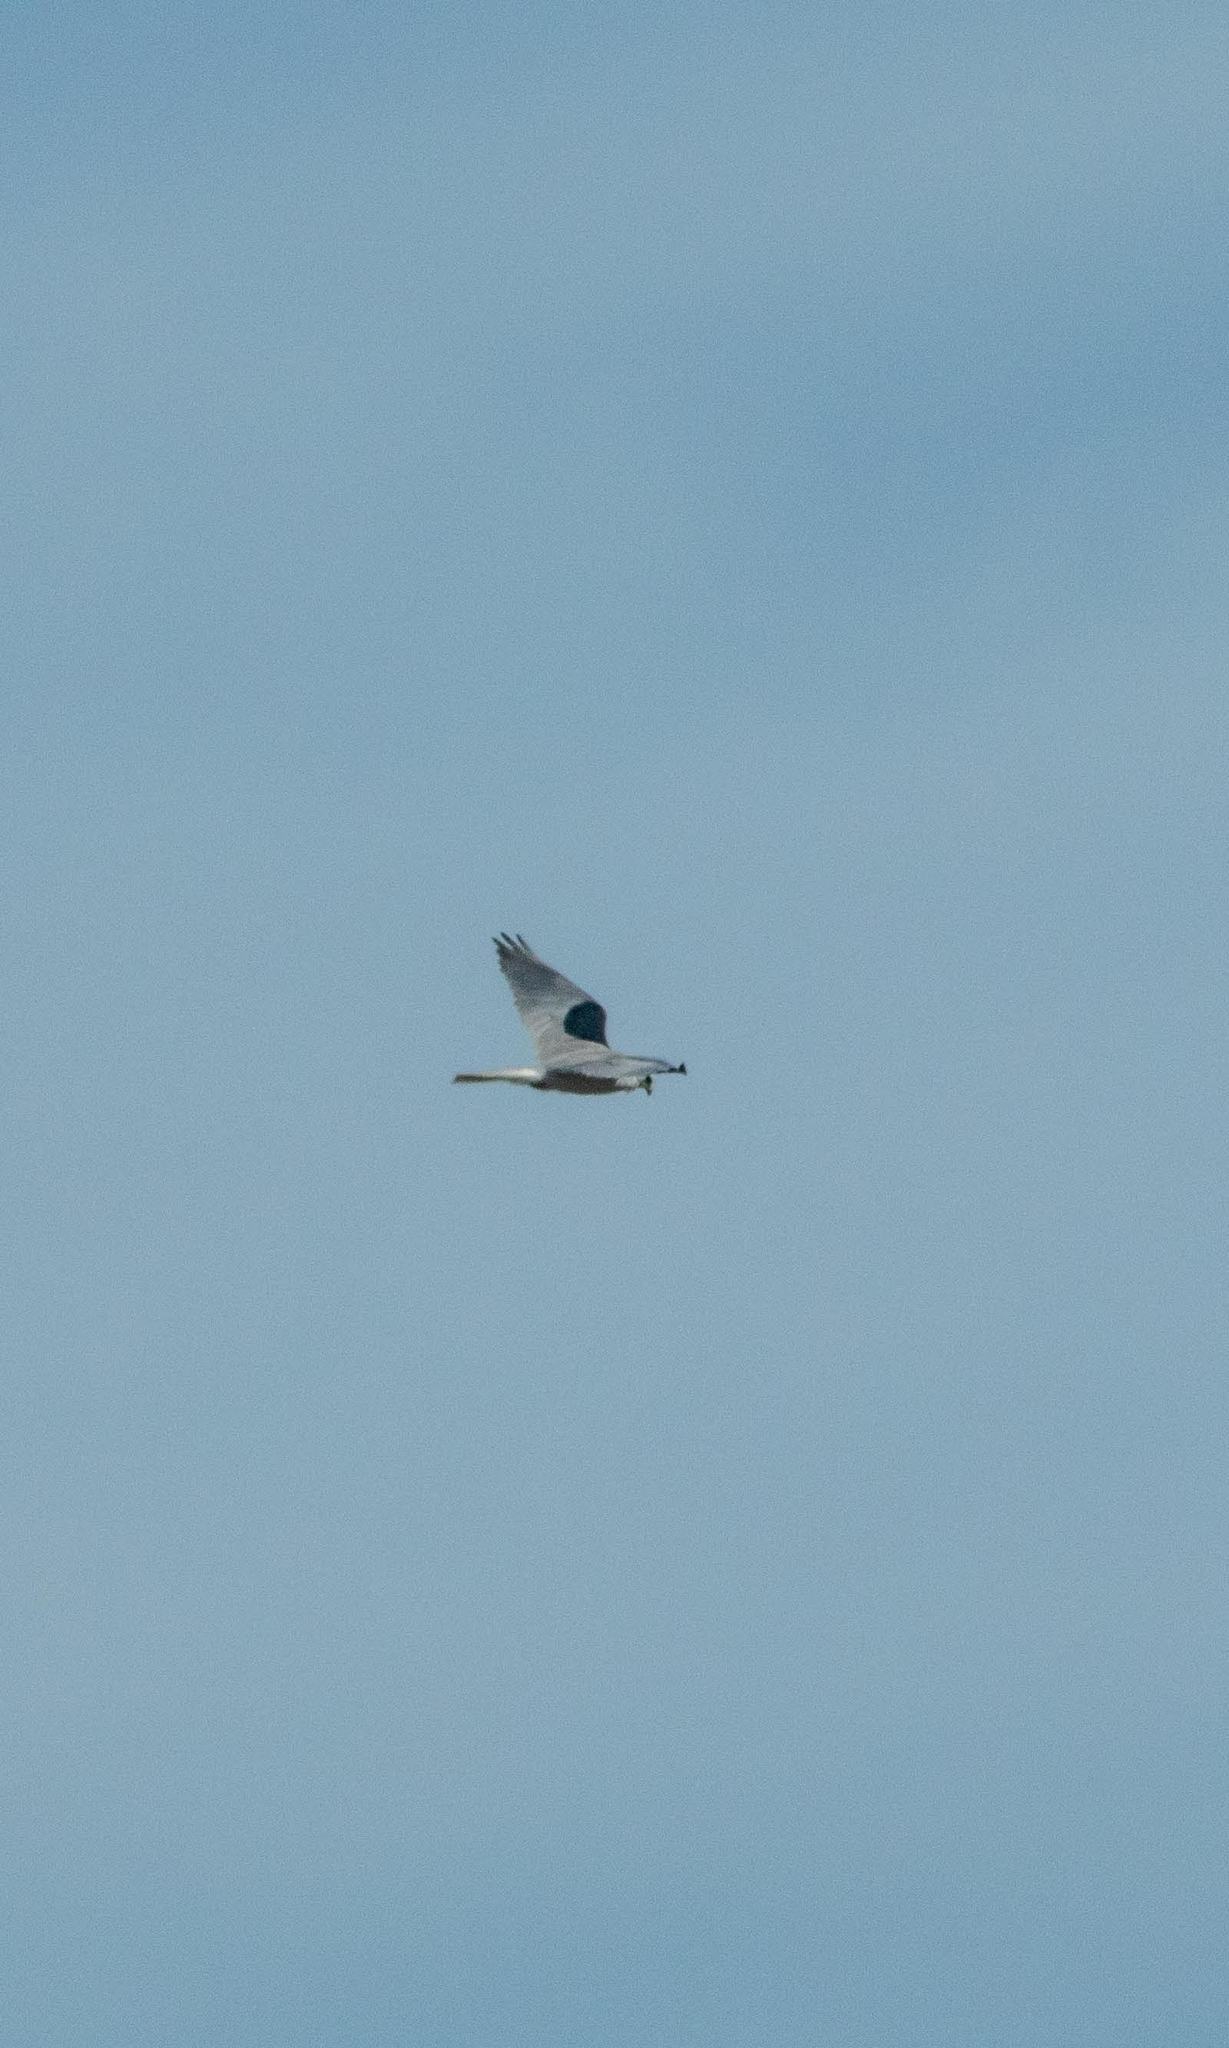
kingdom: Animalia
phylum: Chordata
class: Aves
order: Accipitriformes
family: Accipitridae
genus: Elanus
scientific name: Elanus leucurus
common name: White-tailed kite
